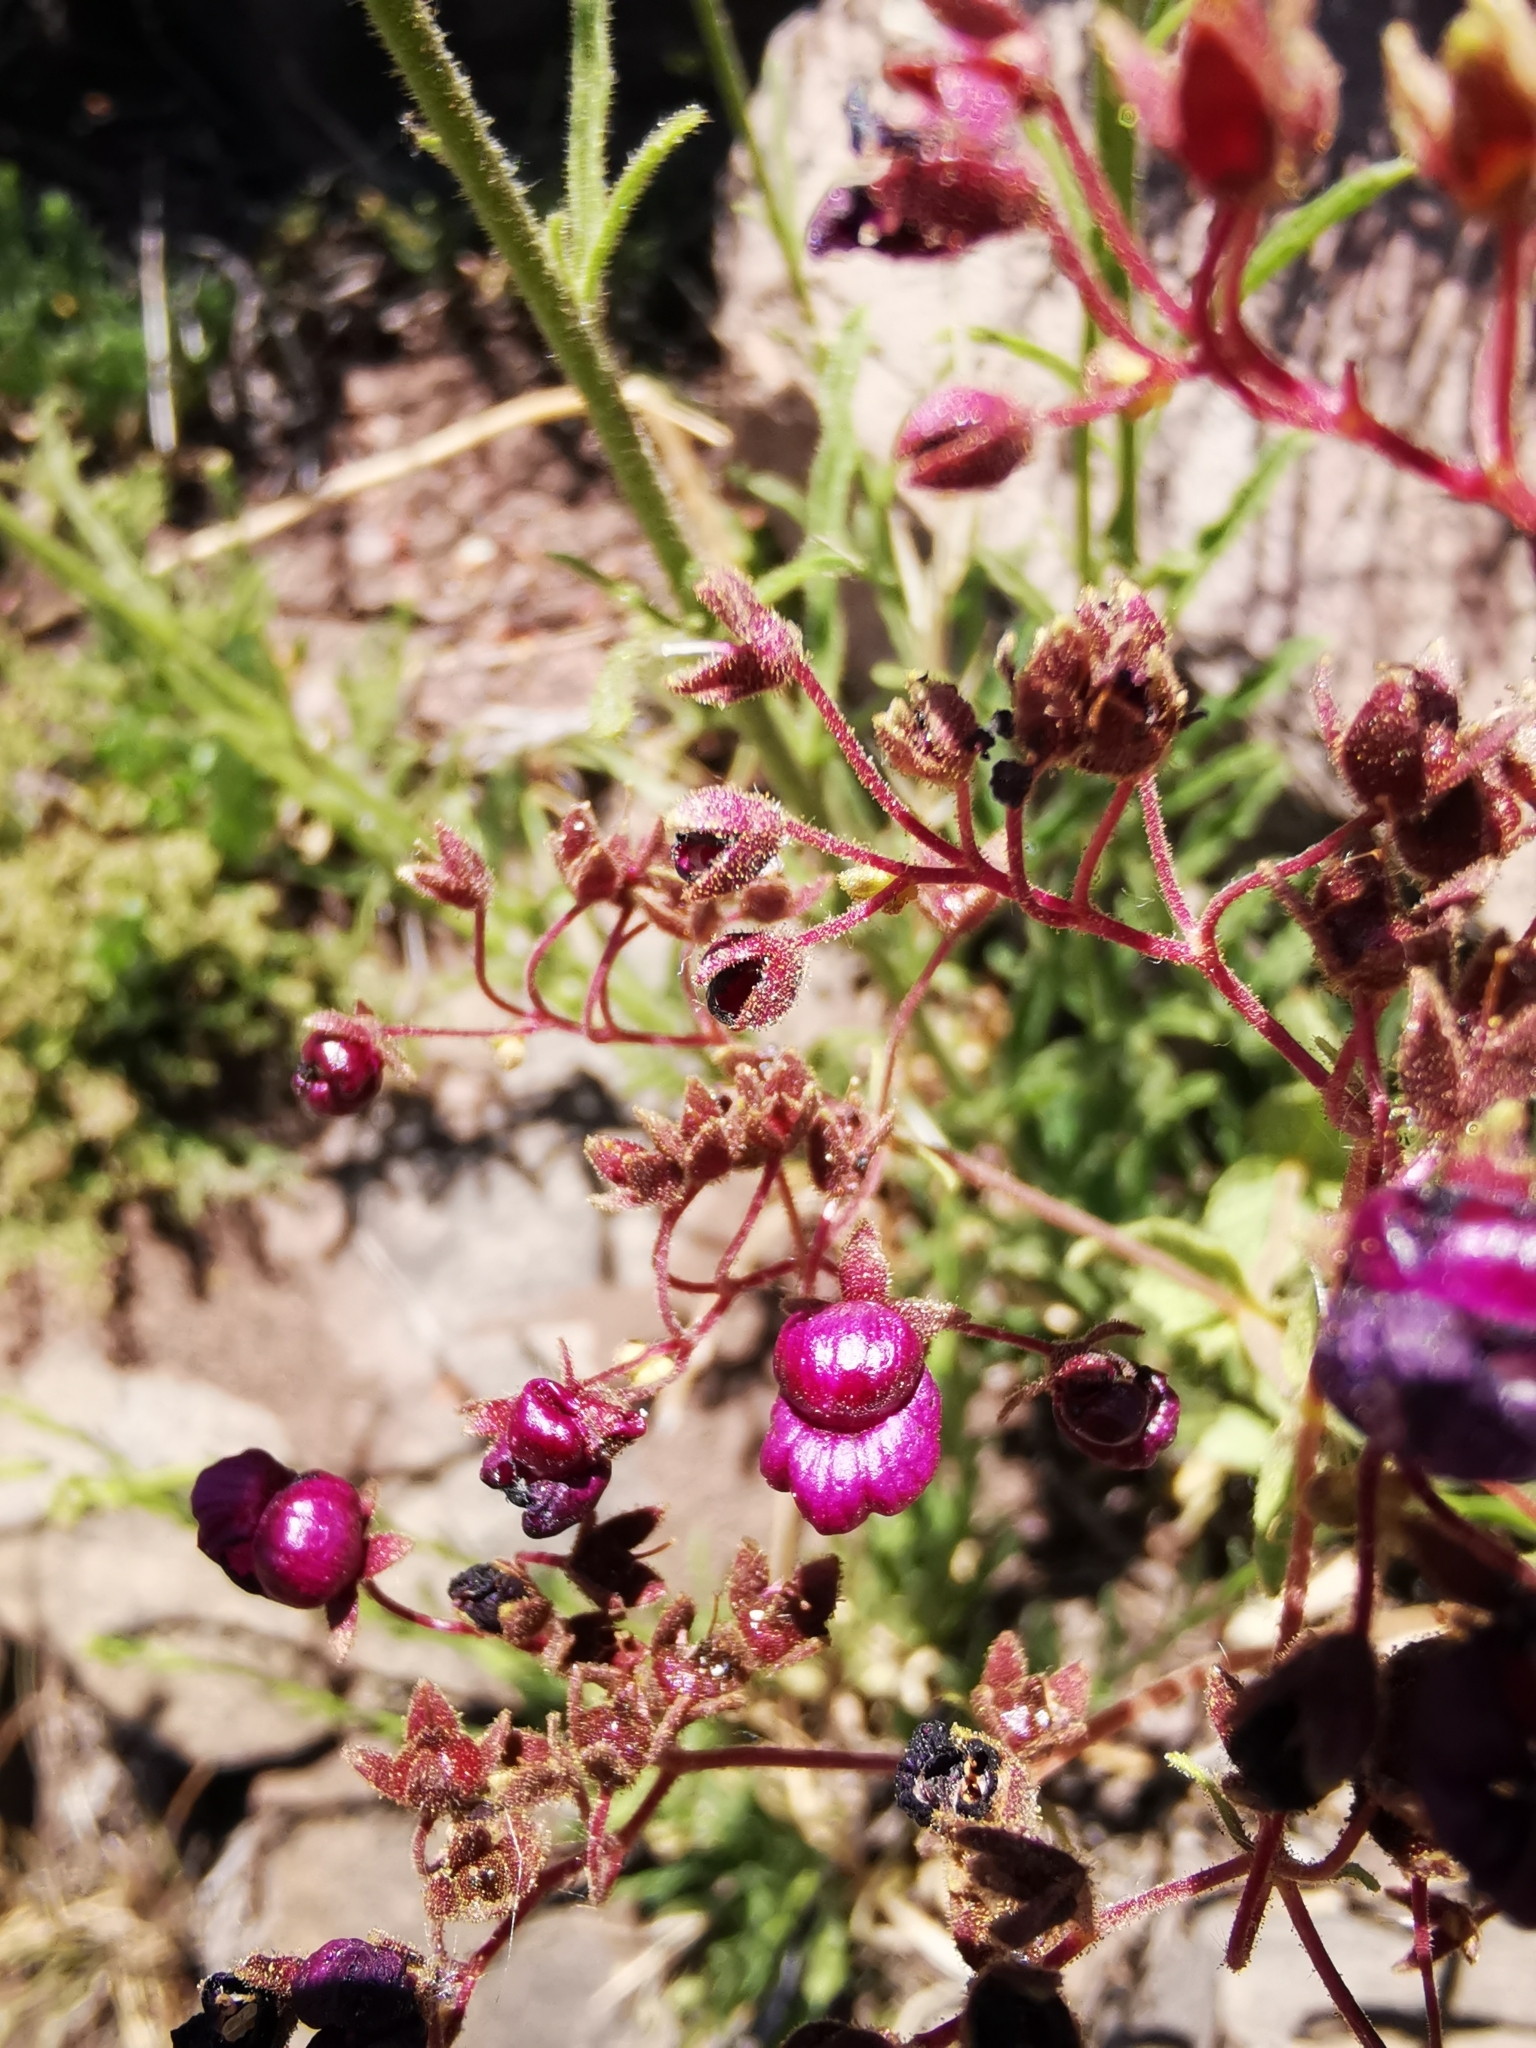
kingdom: Plantae
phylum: Tracheophyta
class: Magnoliopsida
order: Lamiales
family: Calceolariaceae
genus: Calceolaria
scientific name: Calceolaria purpurea
